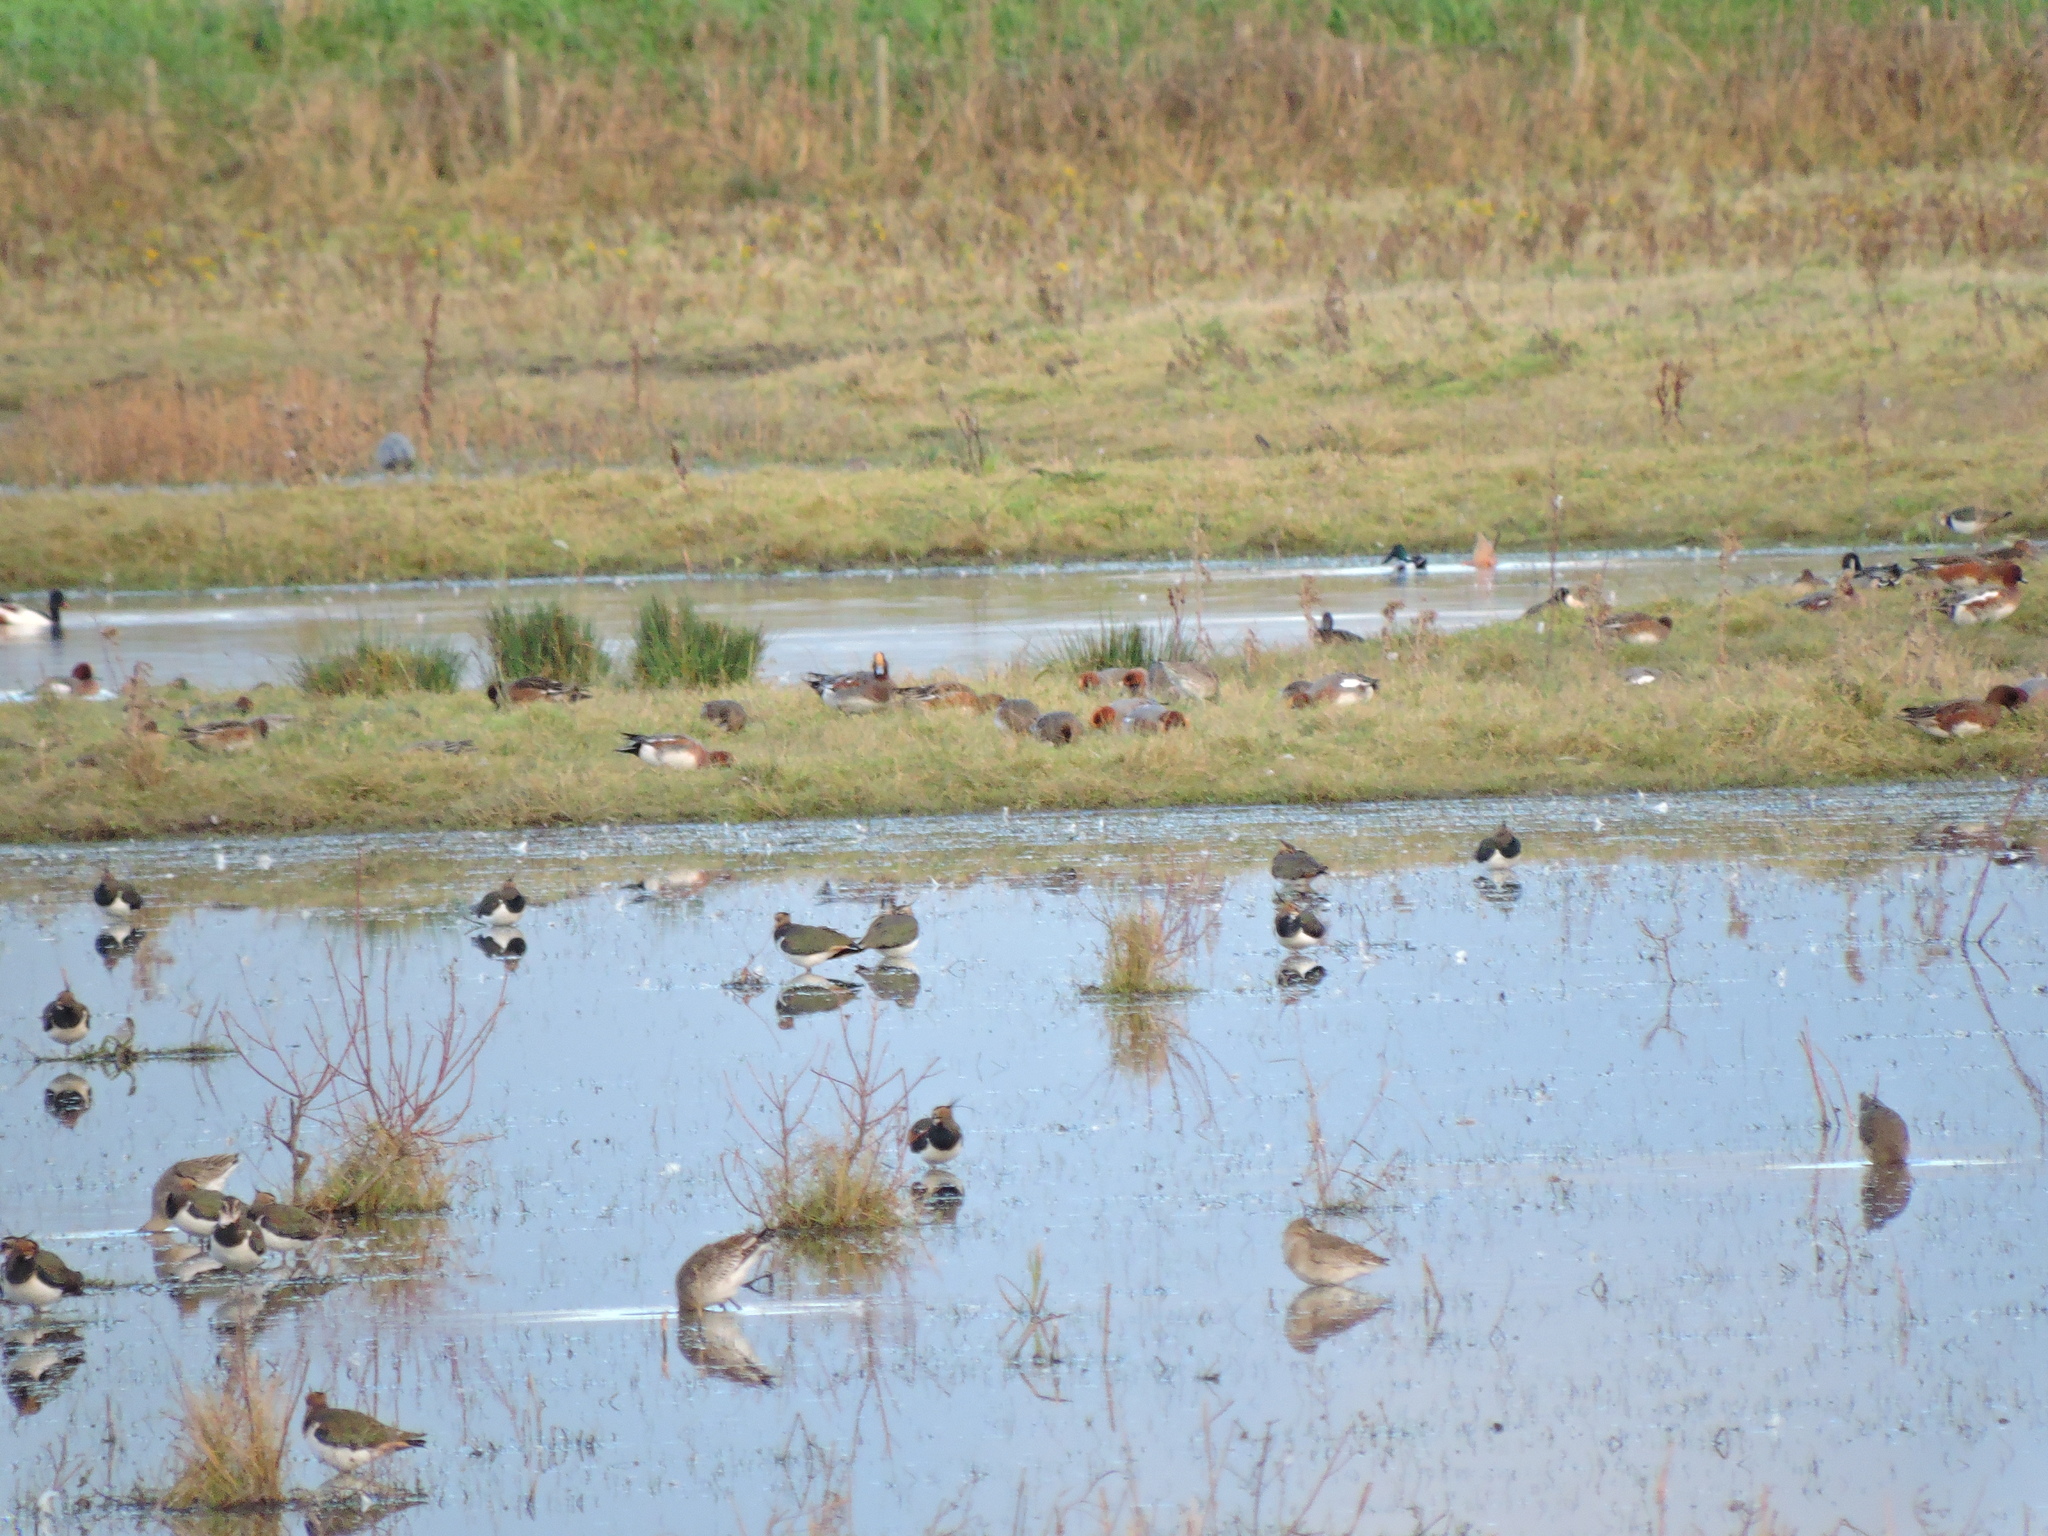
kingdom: Animalia
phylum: Chordata
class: Aves
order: Anseriformes
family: Anatidae
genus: Mareca
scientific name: Mareca penelope
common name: Eurasian wigeon
